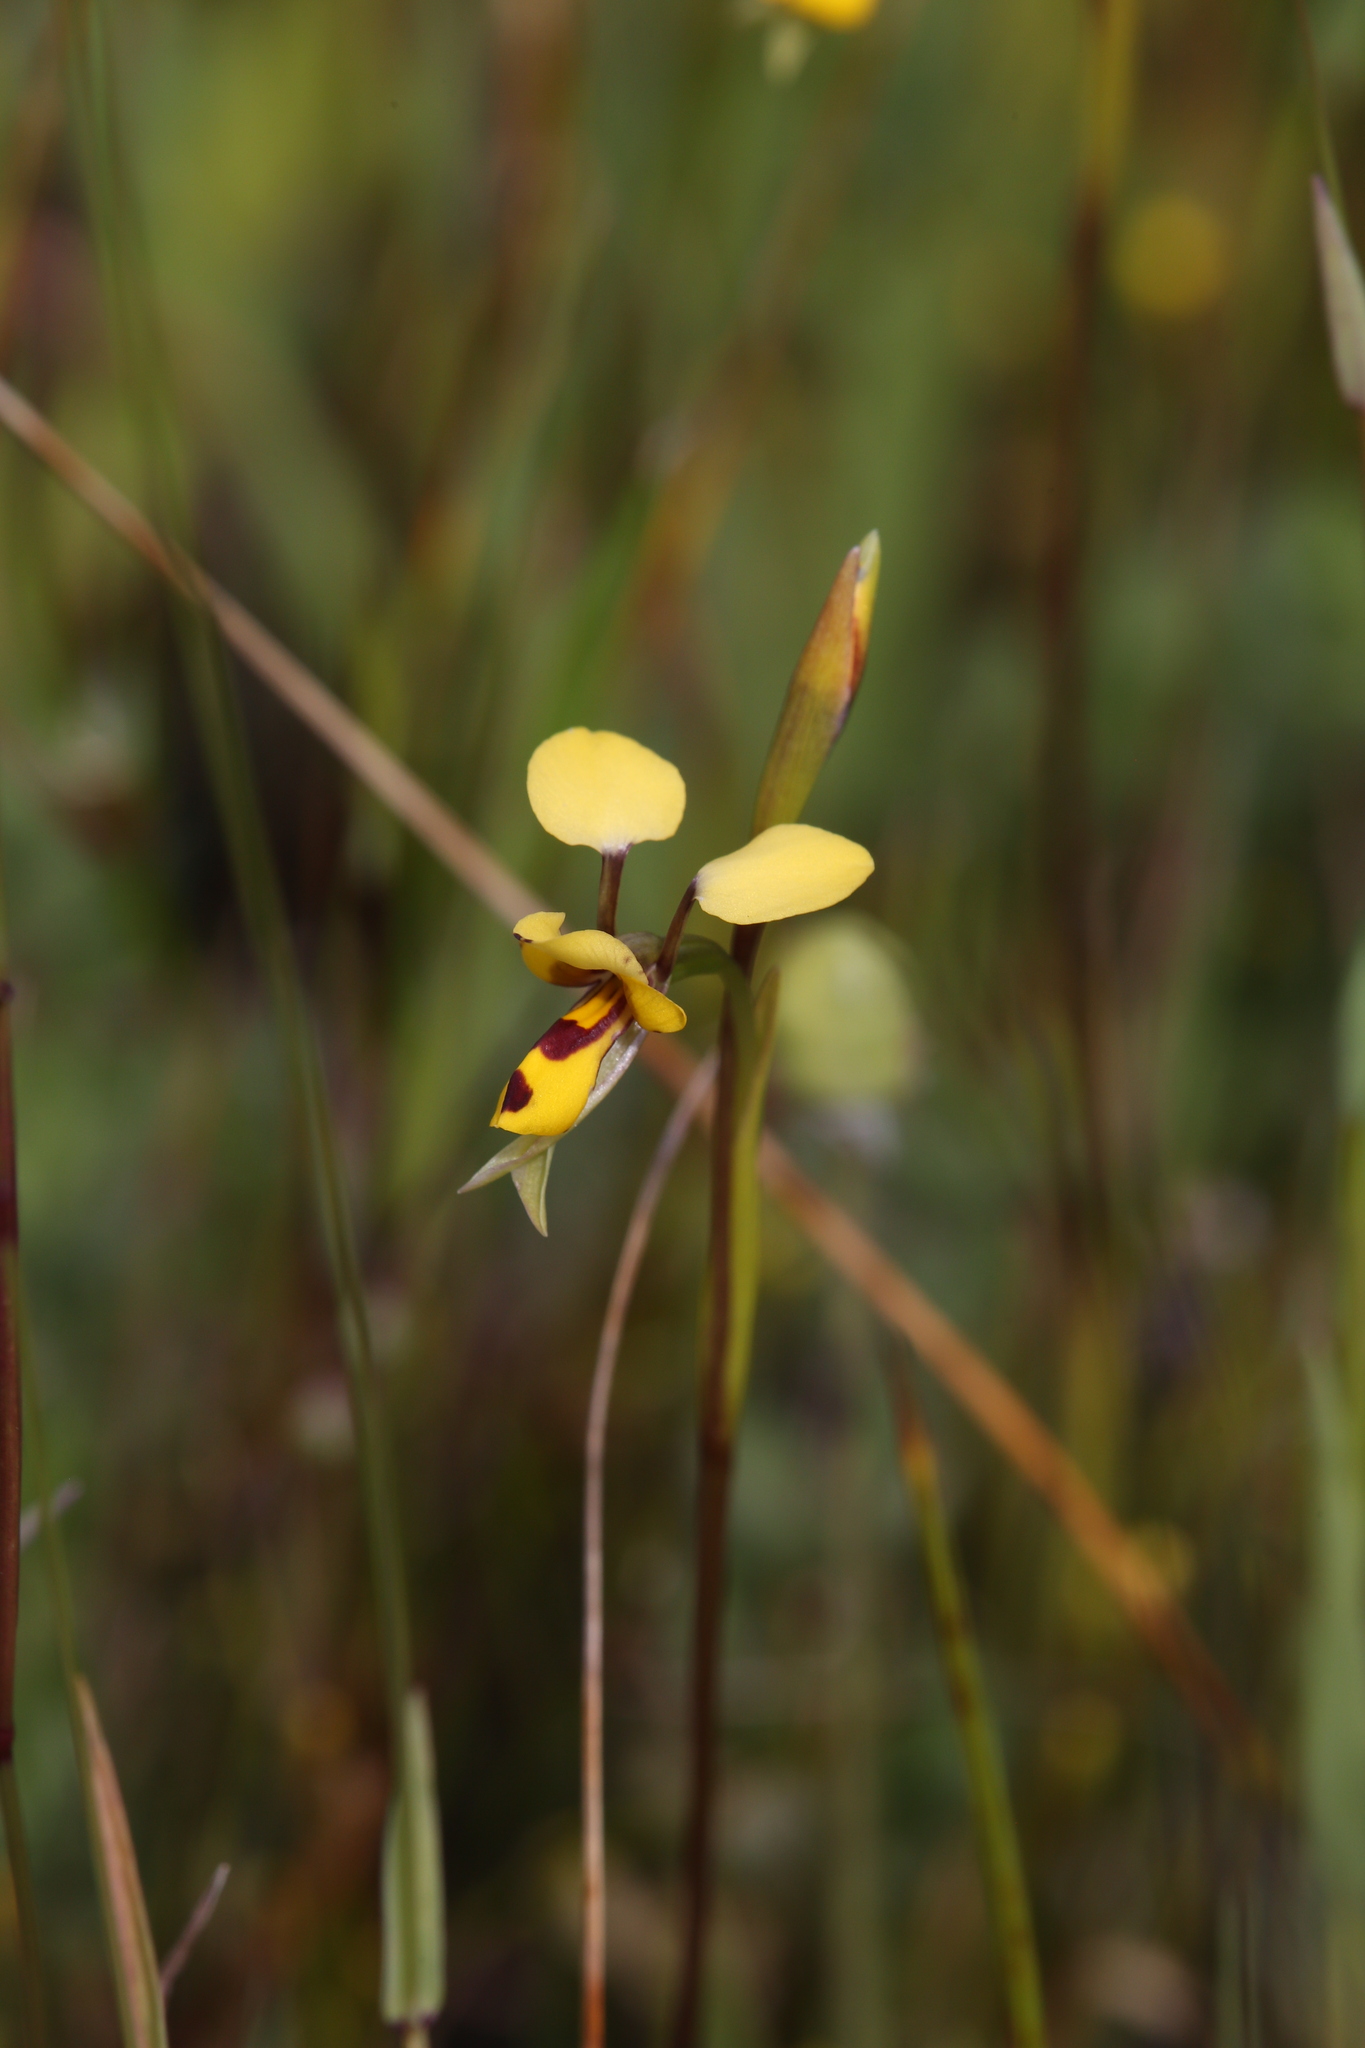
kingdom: Plantae
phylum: Tracheophyta
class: Liliopsida
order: Asparagales
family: Orchidaceae
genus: Diuris
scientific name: Diuris laxiflora
